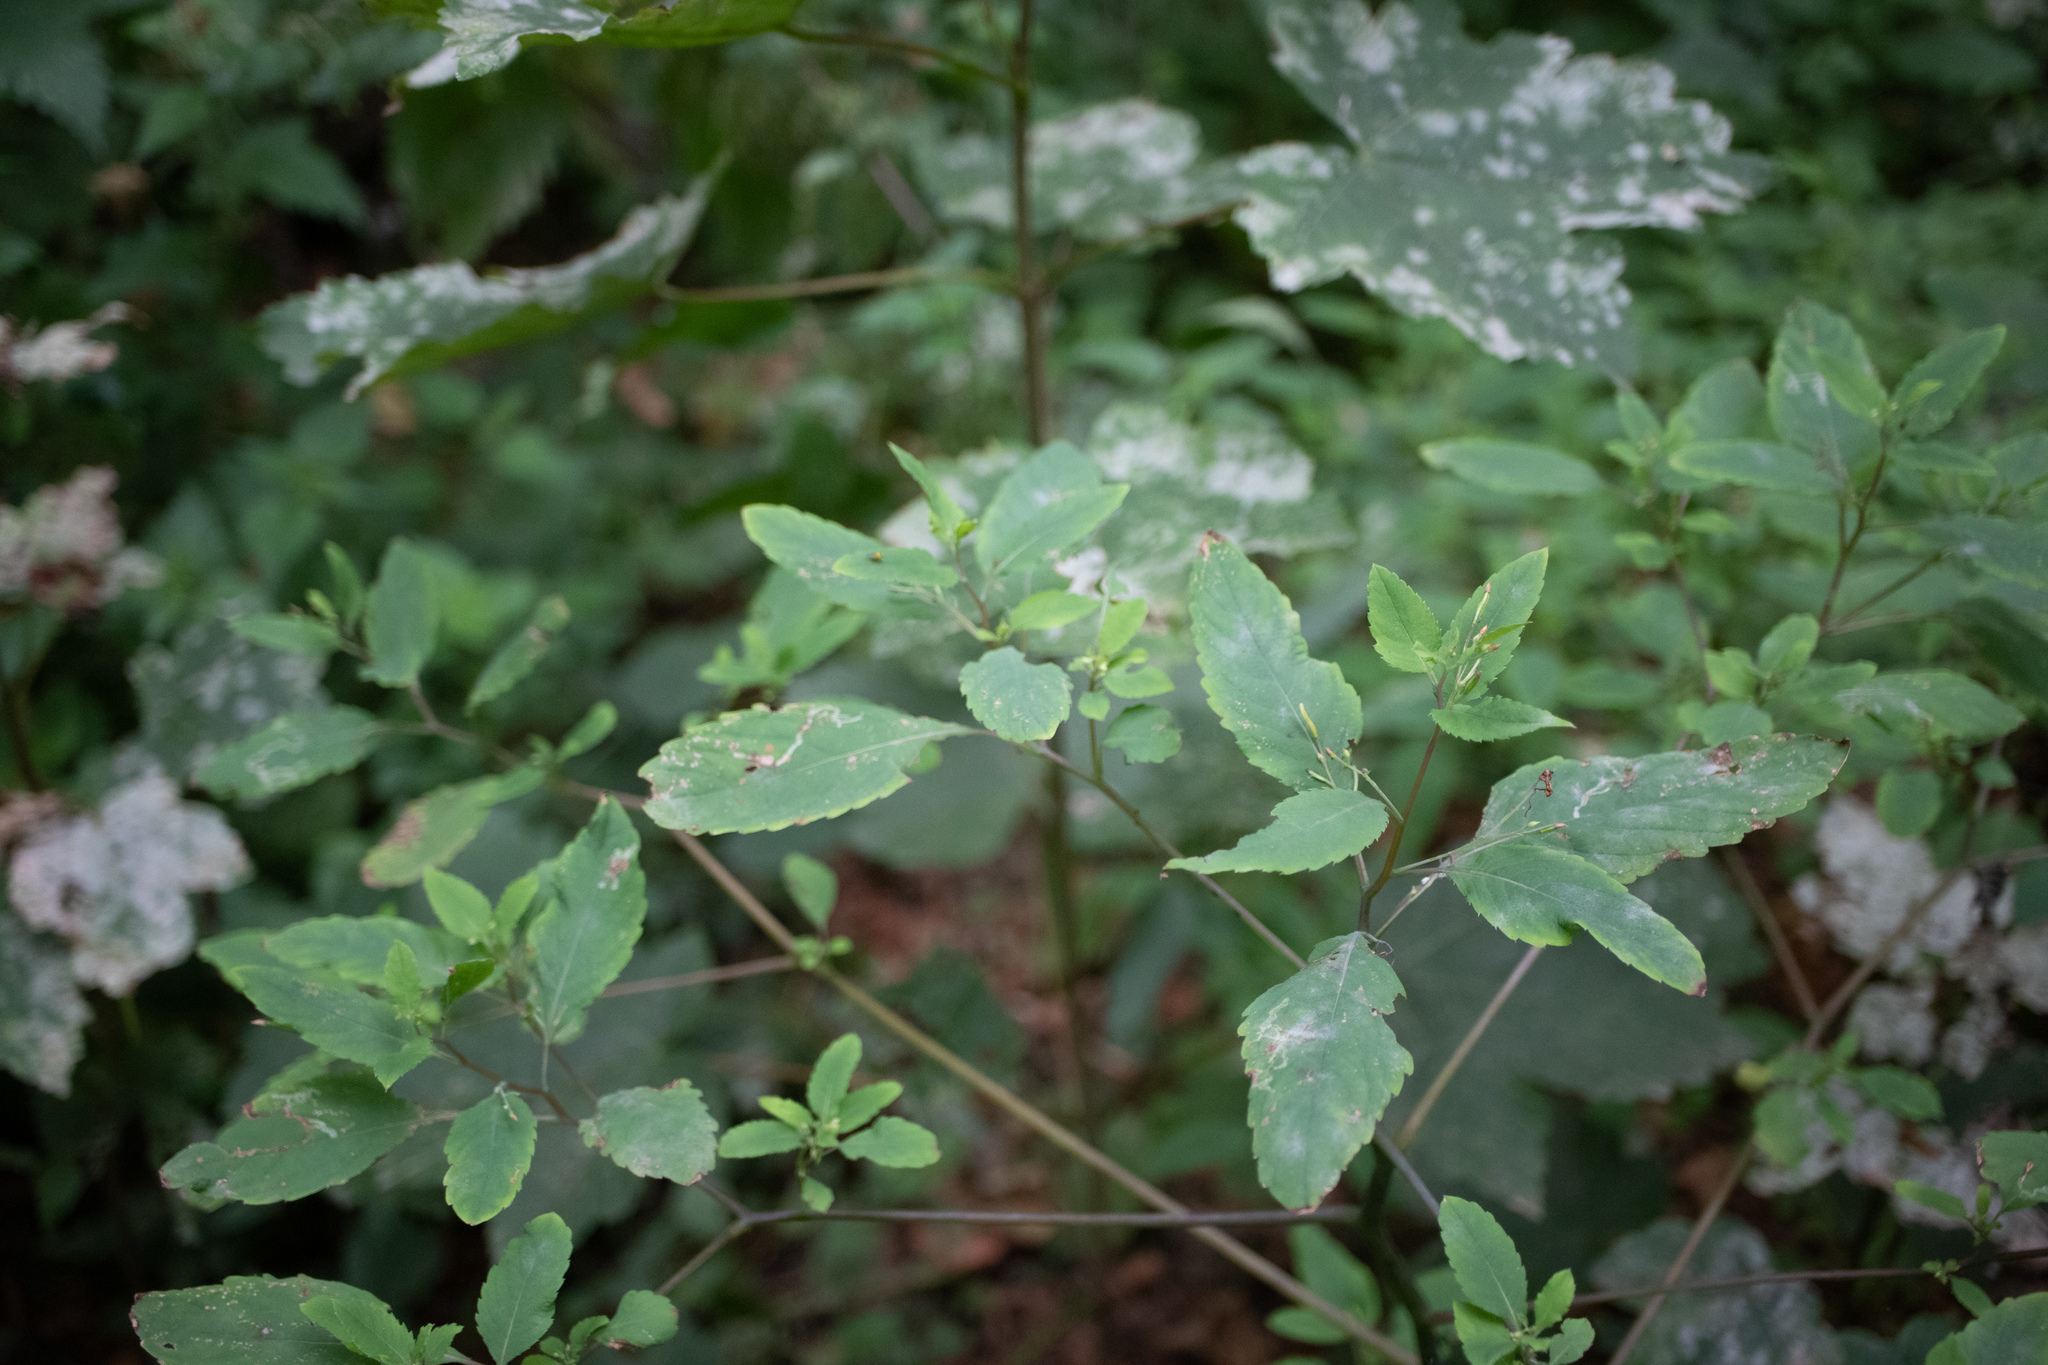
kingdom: Plantae
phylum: Tracheophyta
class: Magnoliopsida
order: Ericales
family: Balsaminaceae
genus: Impatiens
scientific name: Impatiens noli-tangere
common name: Touch-me-not balsam
